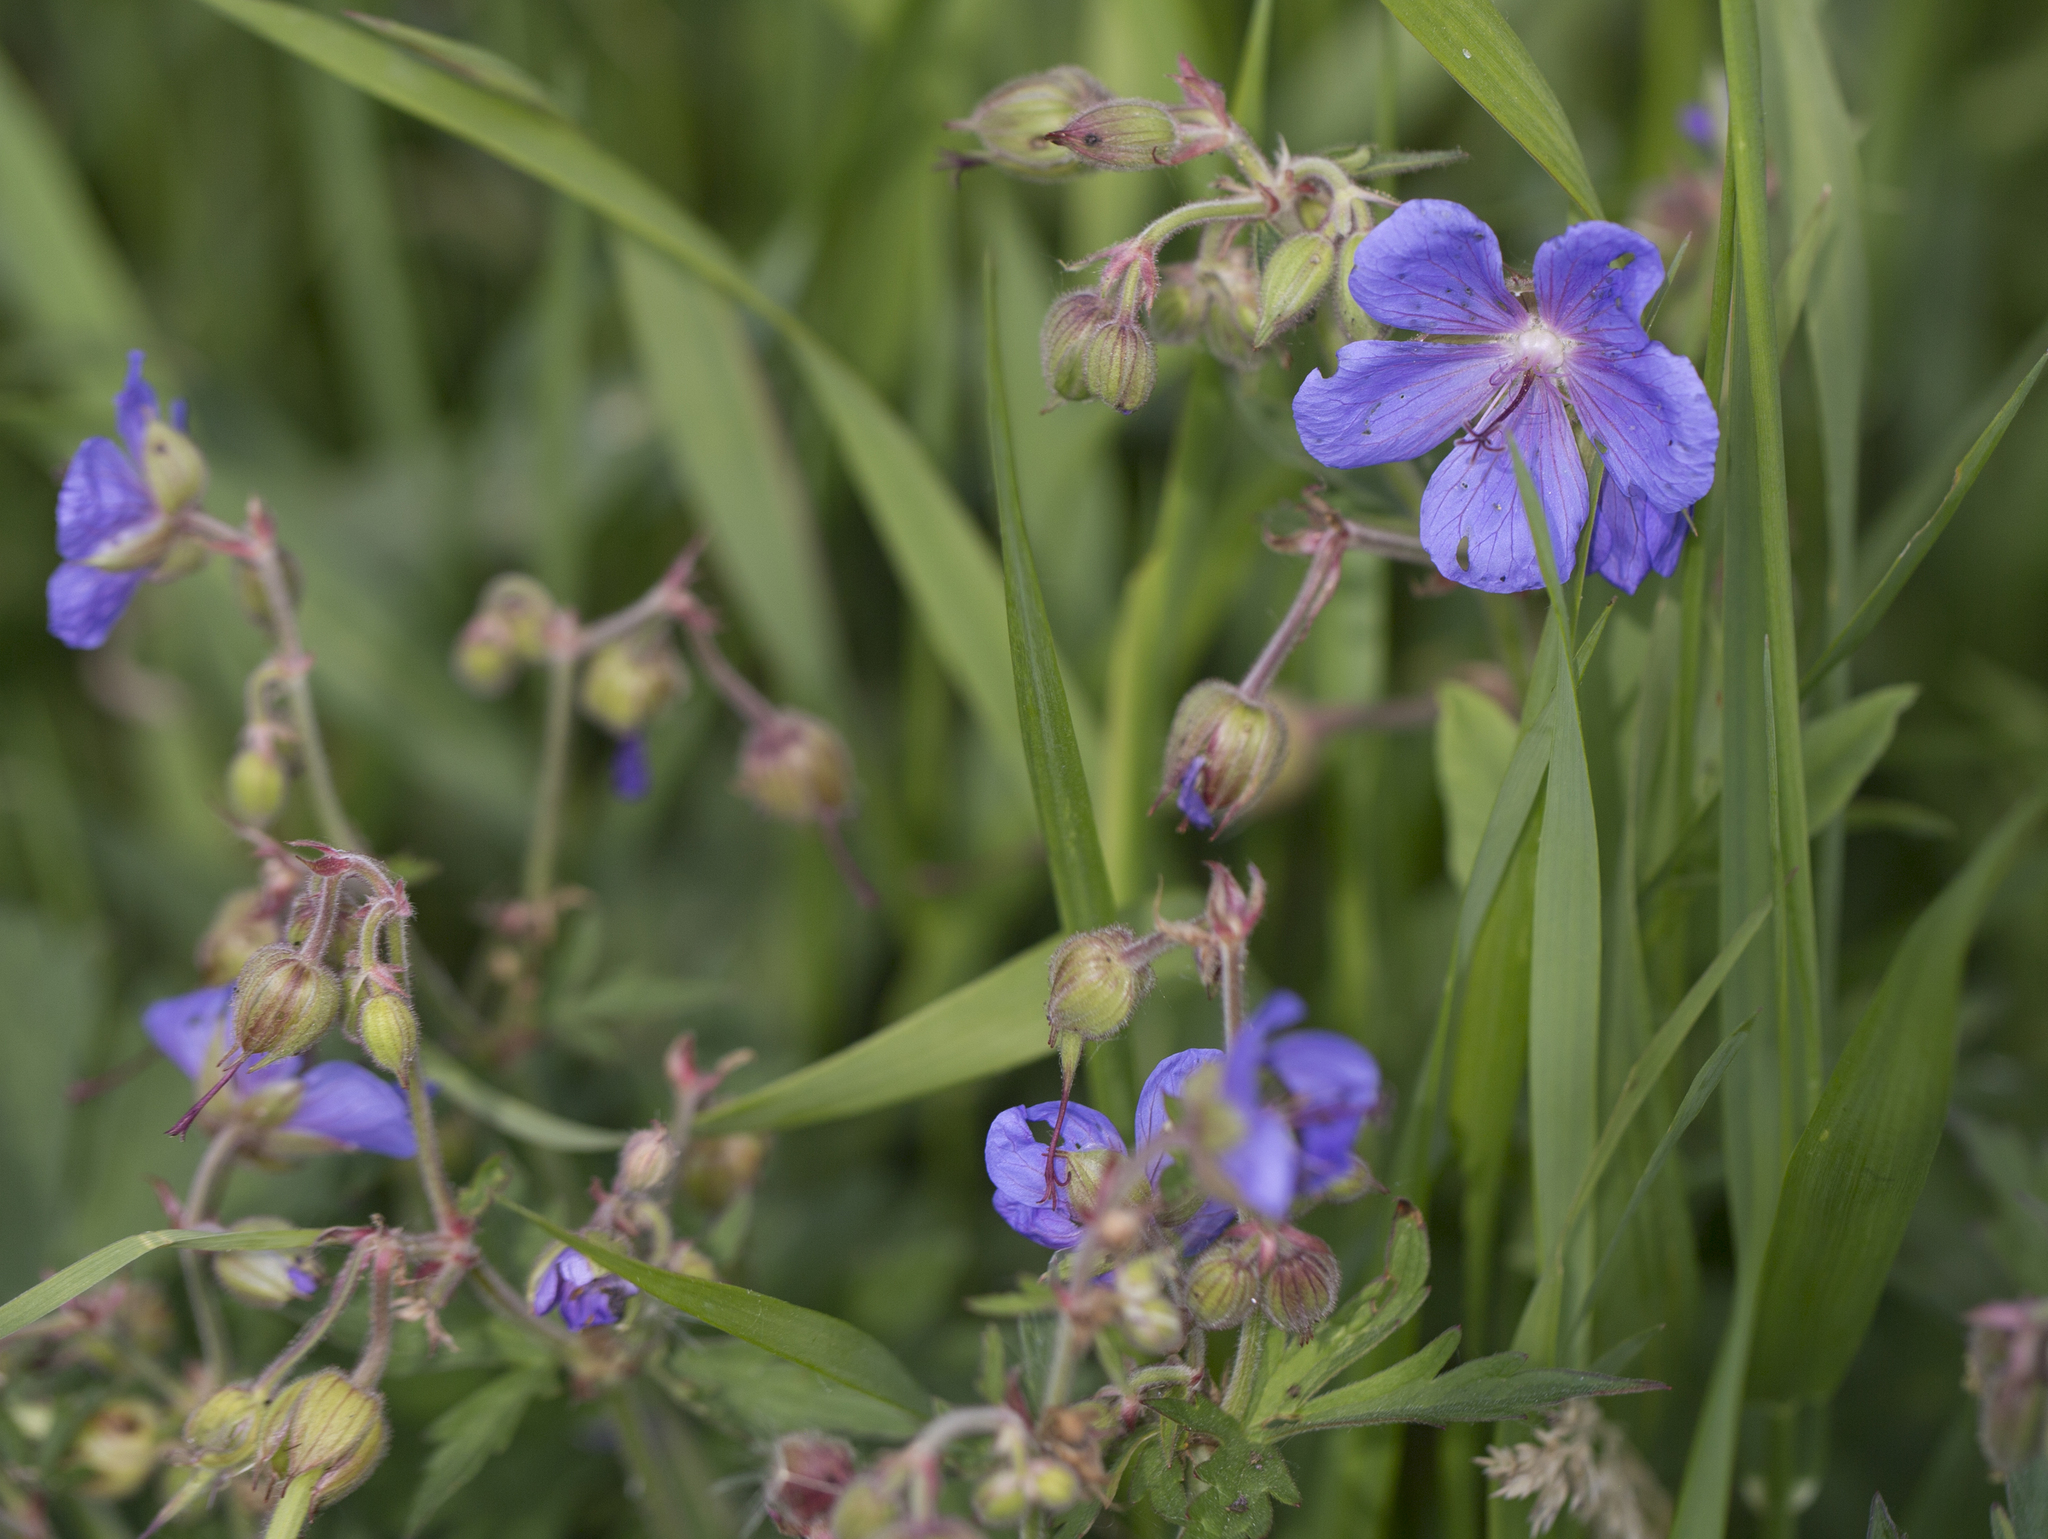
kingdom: Plantae
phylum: Tracheophyta
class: Magnoliopsida
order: Geraniales
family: Geraniaceae
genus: Geranium
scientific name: Geranium pratense
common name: Meadow crane's-bill
